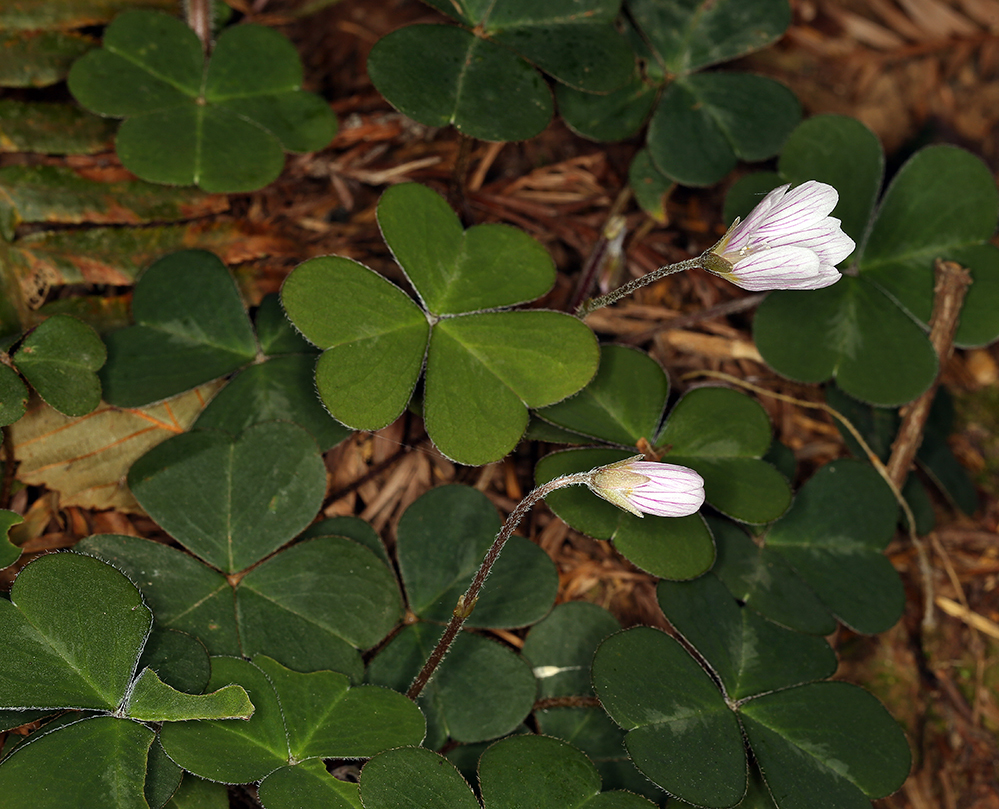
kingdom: Plantae
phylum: Tracheophyta
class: Magnoliopsida
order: Oxalidales
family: Oxalidaceae
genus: Oxalis
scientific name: Oxalis oregana
